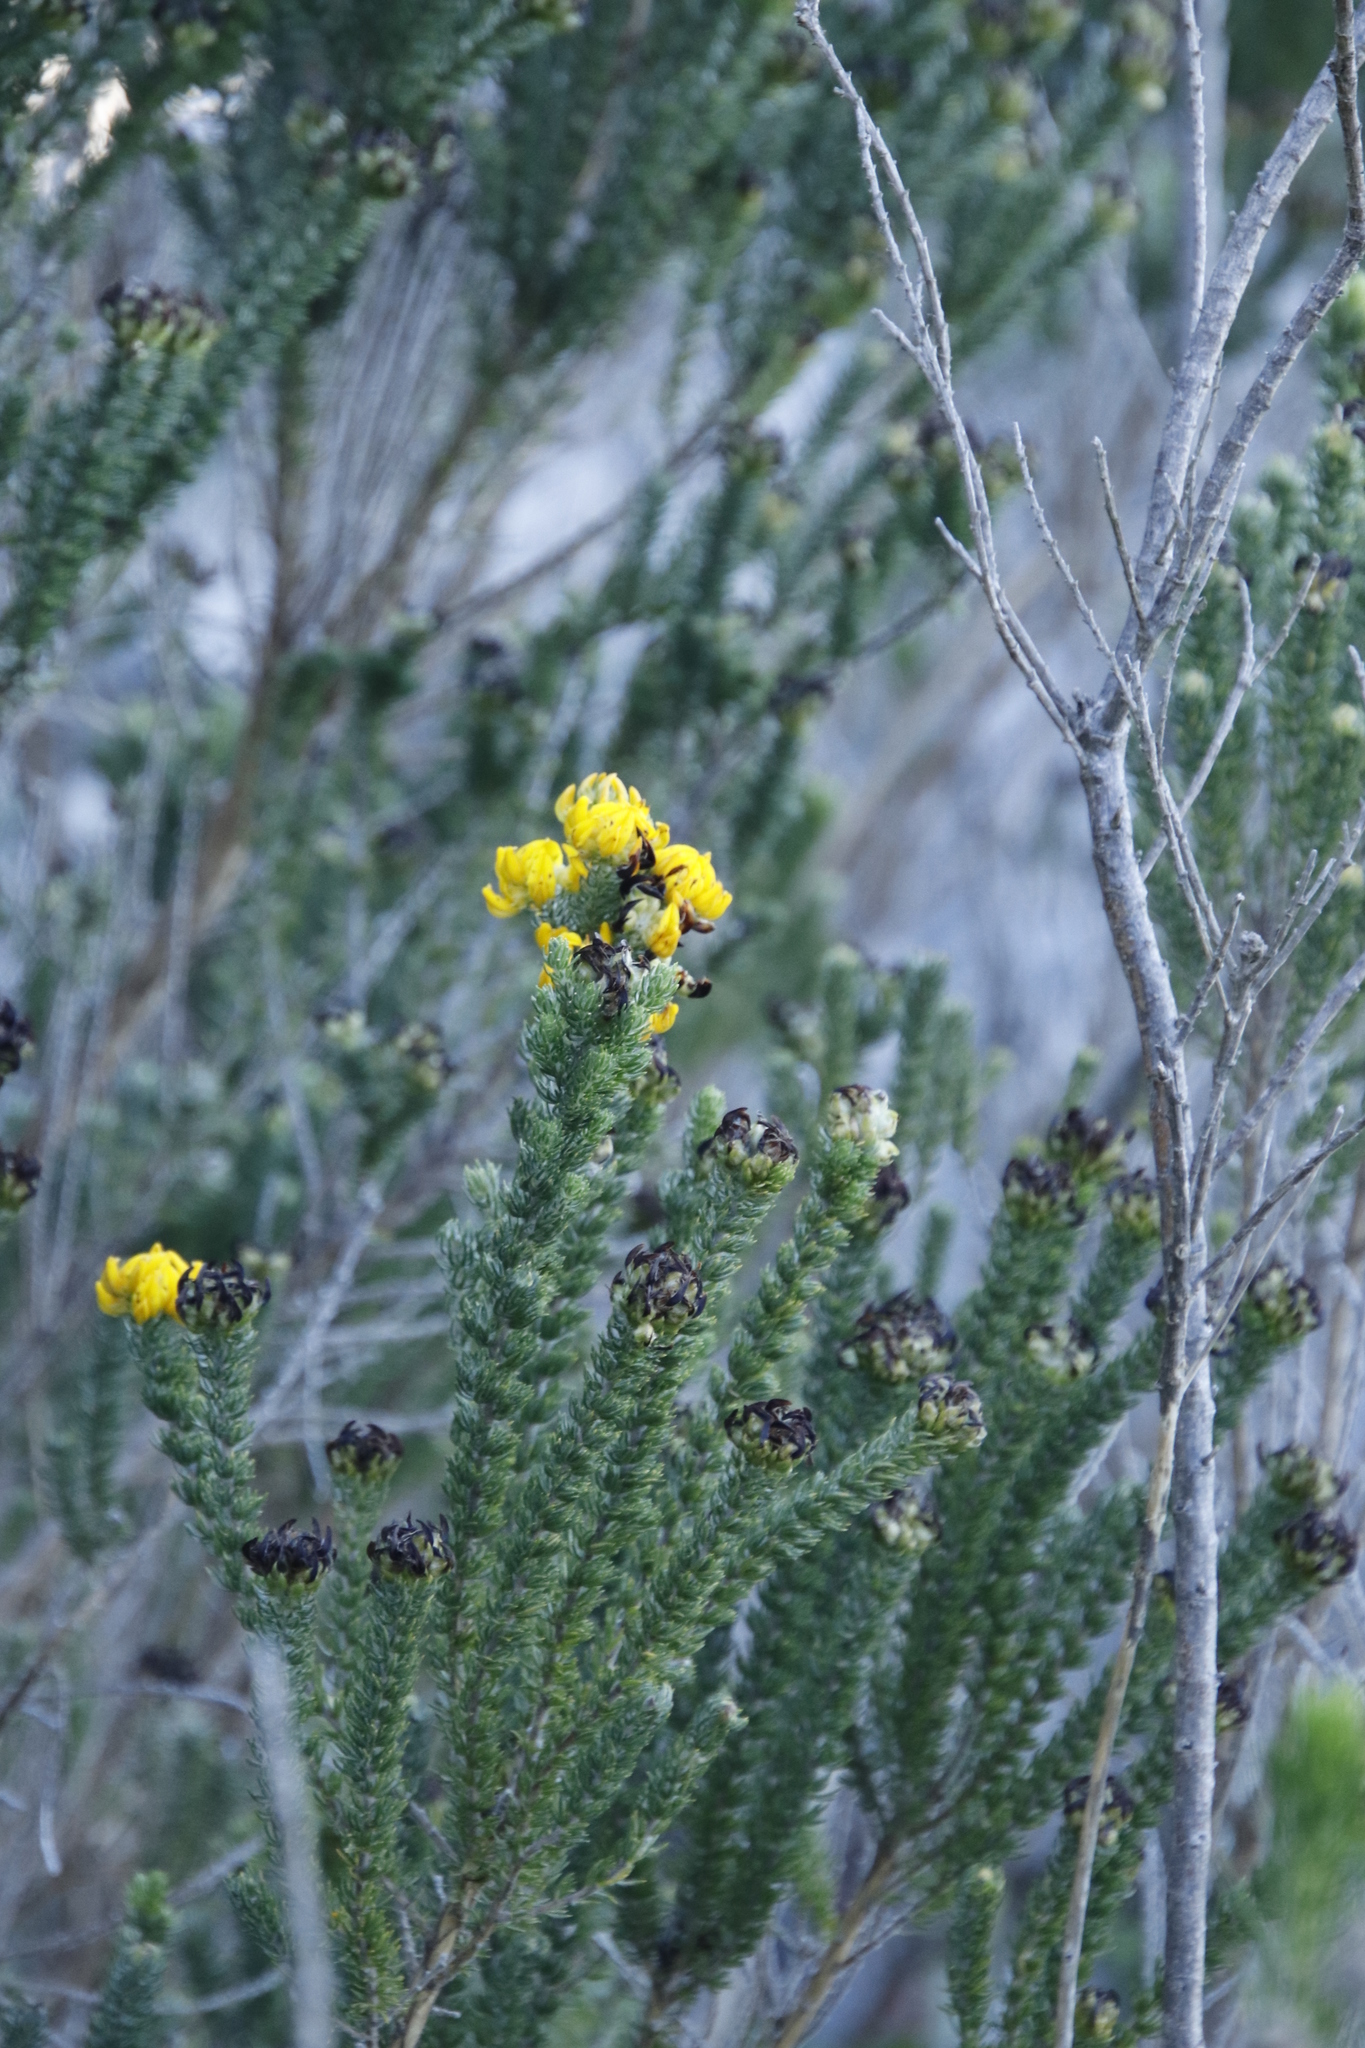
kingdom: Plantae
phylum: Tracheophyta
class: Magnoliopsida
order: Fabales
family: Fabaceae
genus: Aspalathus
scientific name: Aspalathus capitata
